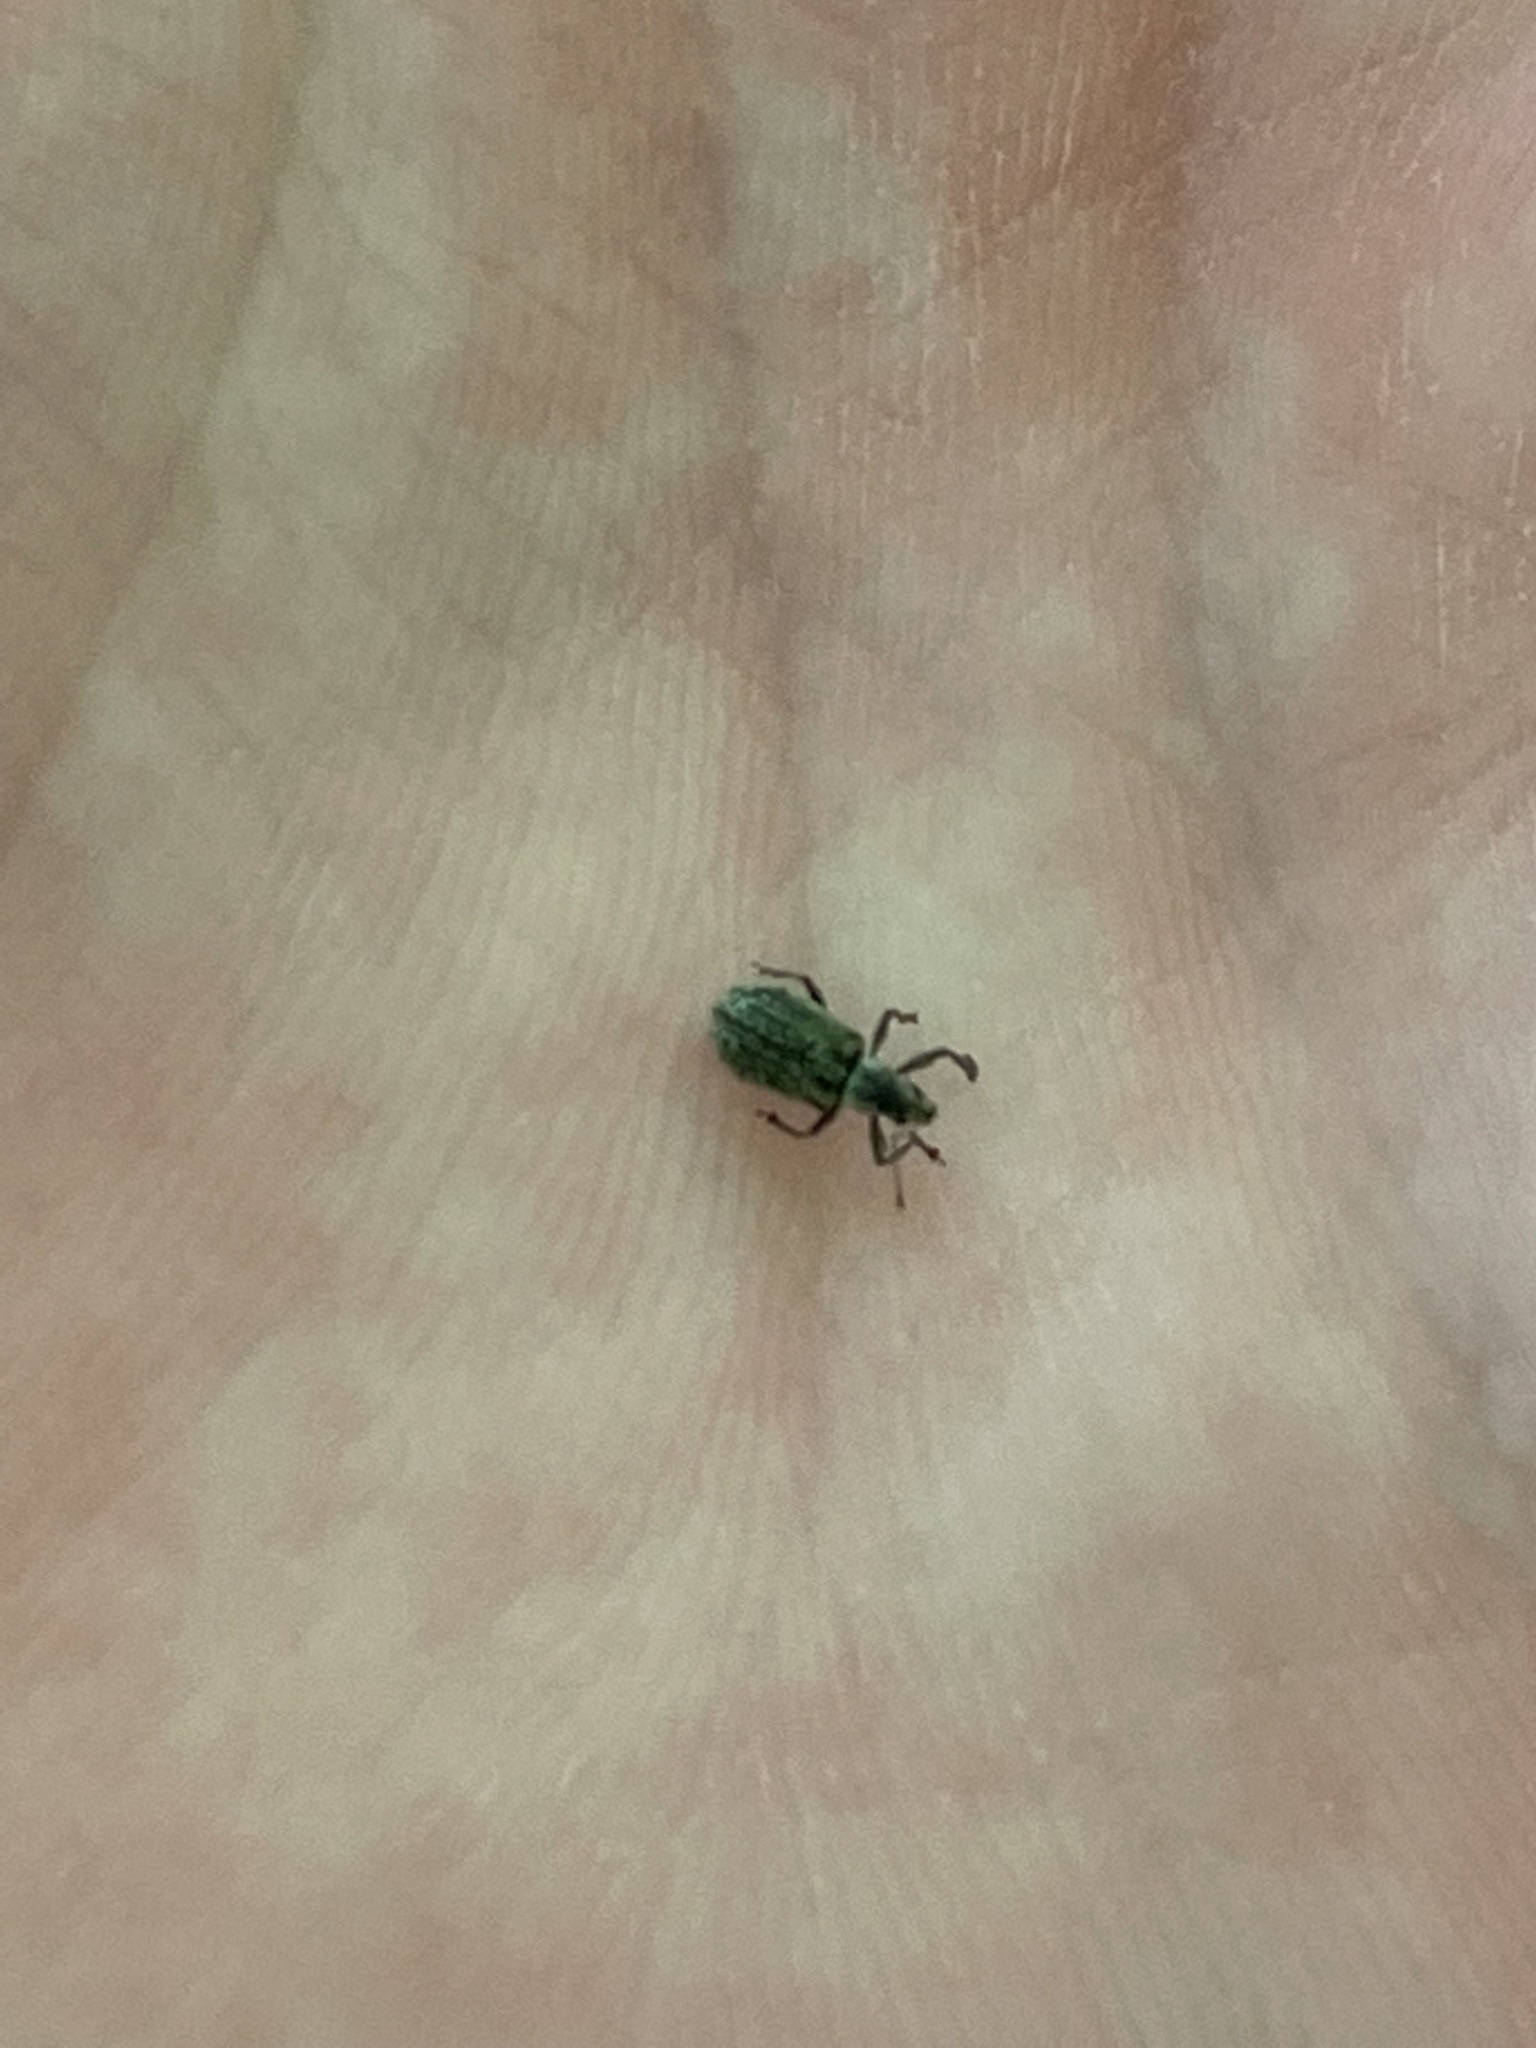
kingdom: Animalia
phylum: Arthropoda
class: Insecta
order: Coleoptera
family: Curculionidae
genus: Polydrusus
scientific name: Polydrusus cervinus
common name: Weevil
